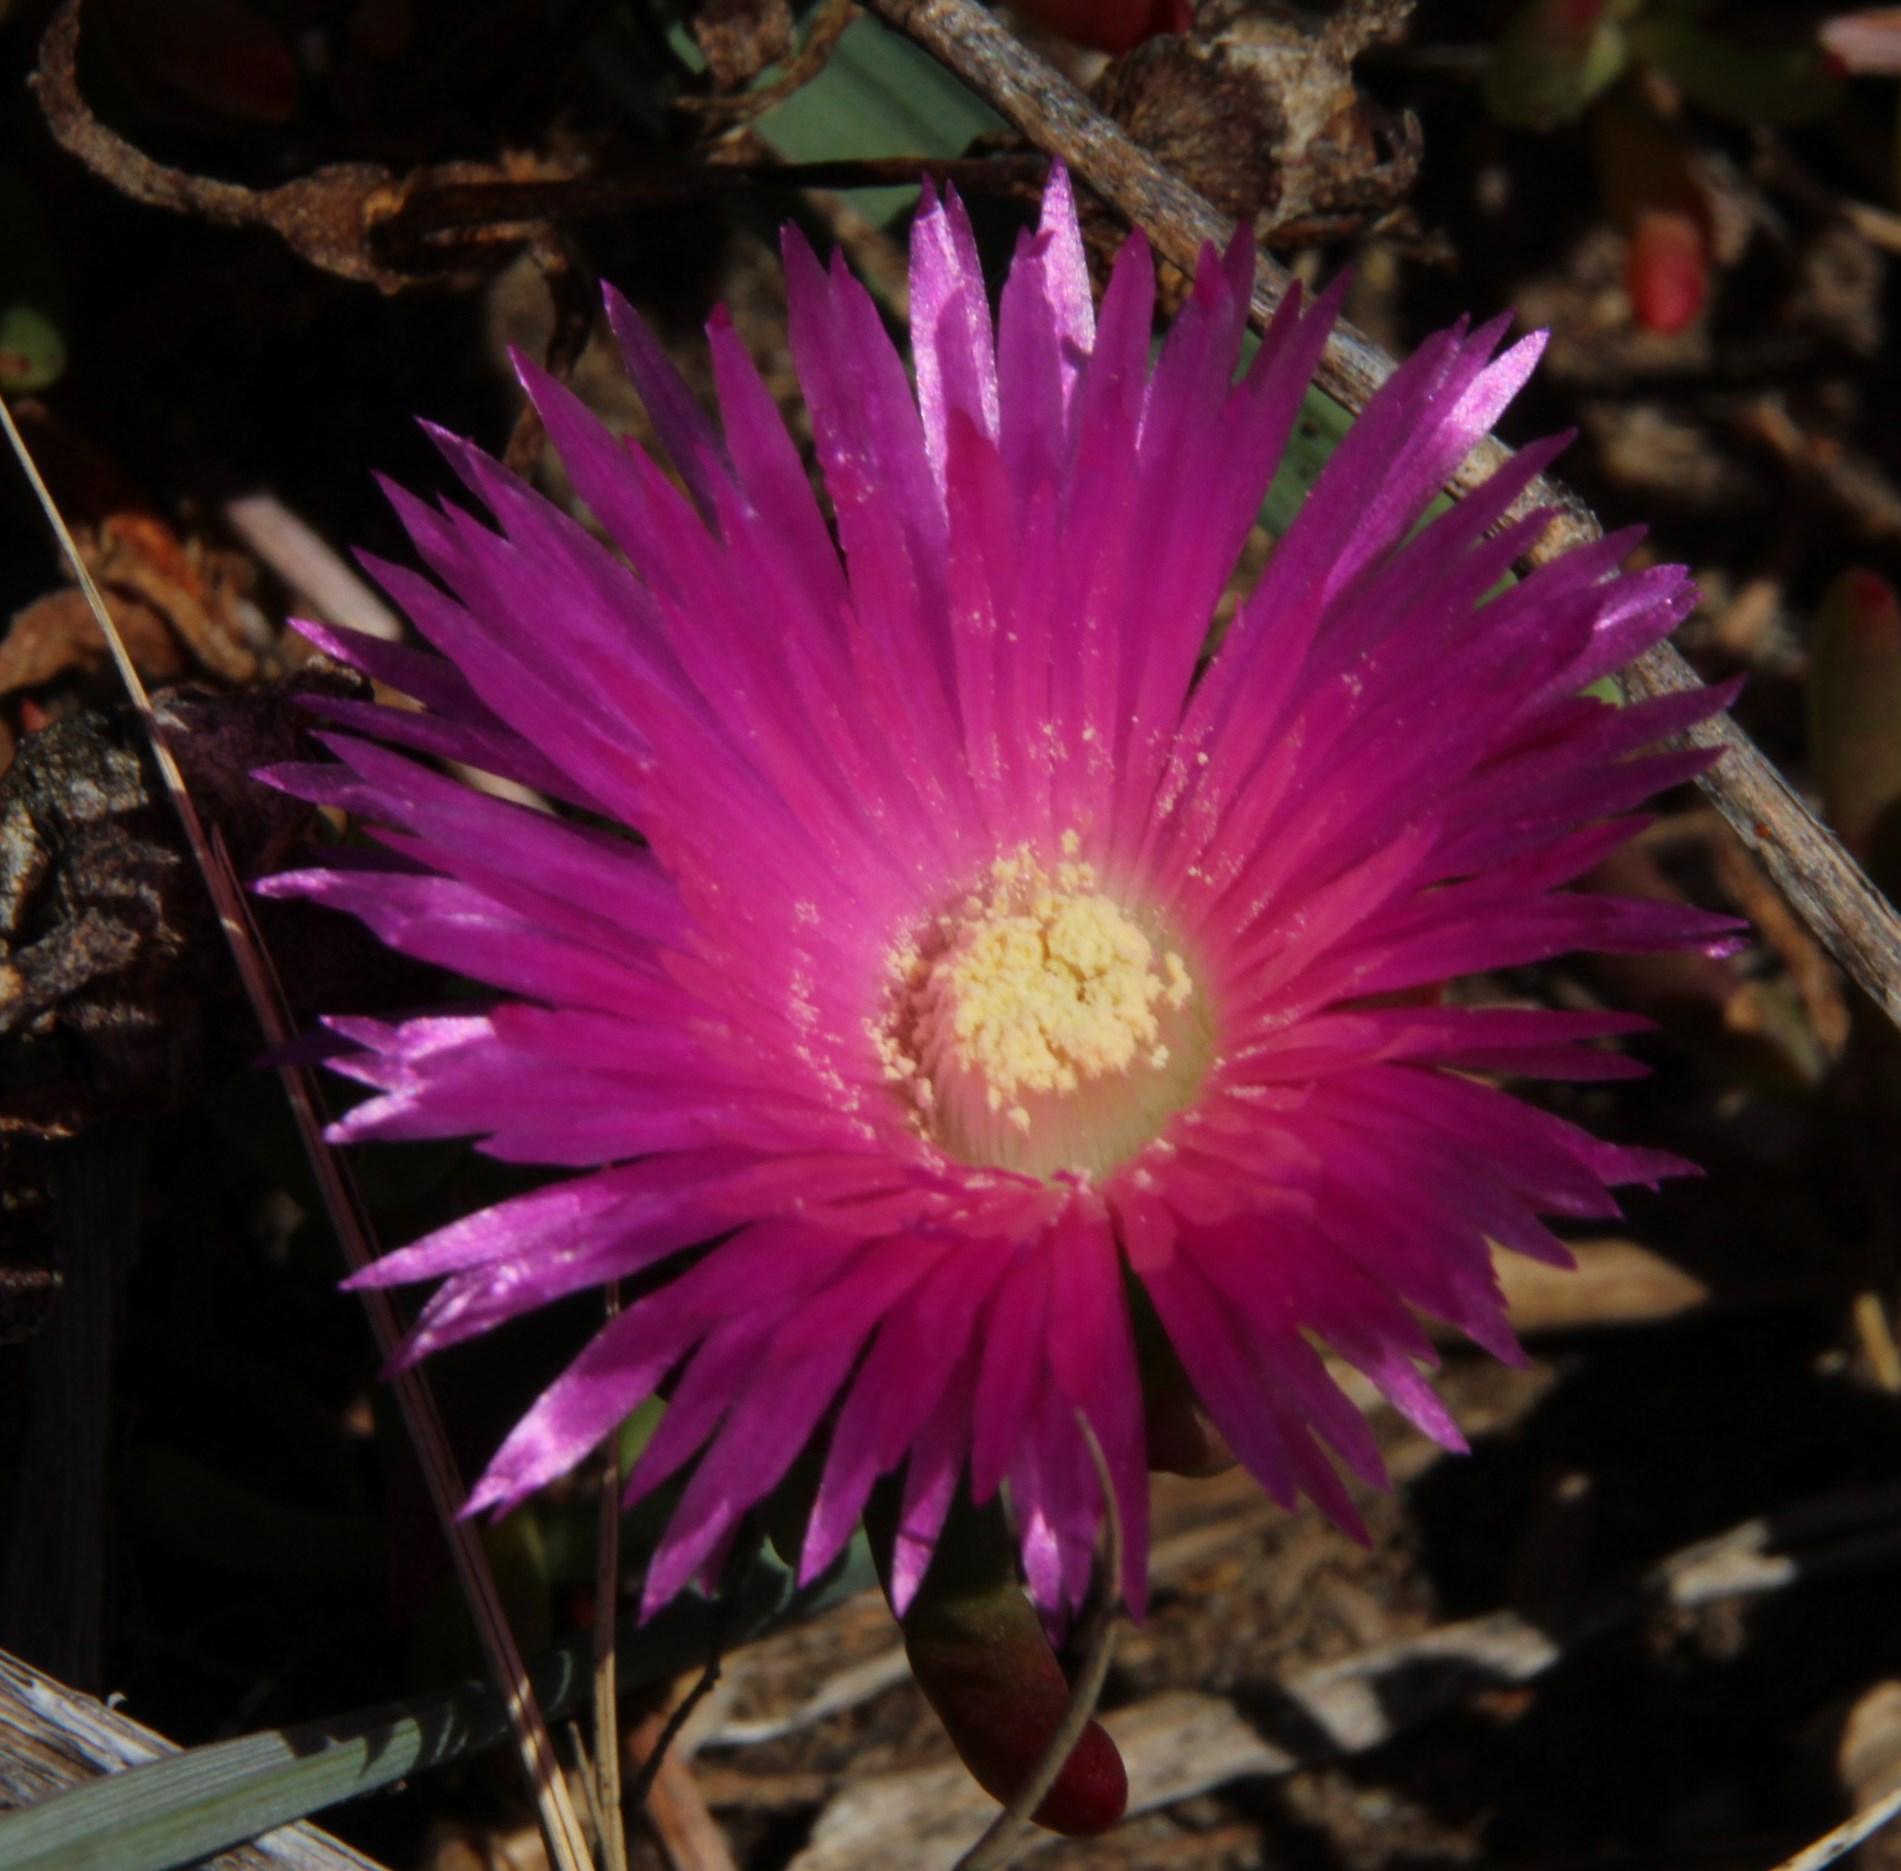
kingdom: Plantae
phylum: Tracheophyta
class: Magnoliopsida
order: Caryophyllales
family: Aizoaceae
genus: Lampranthus
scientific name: Lampranthus tenuifolius
